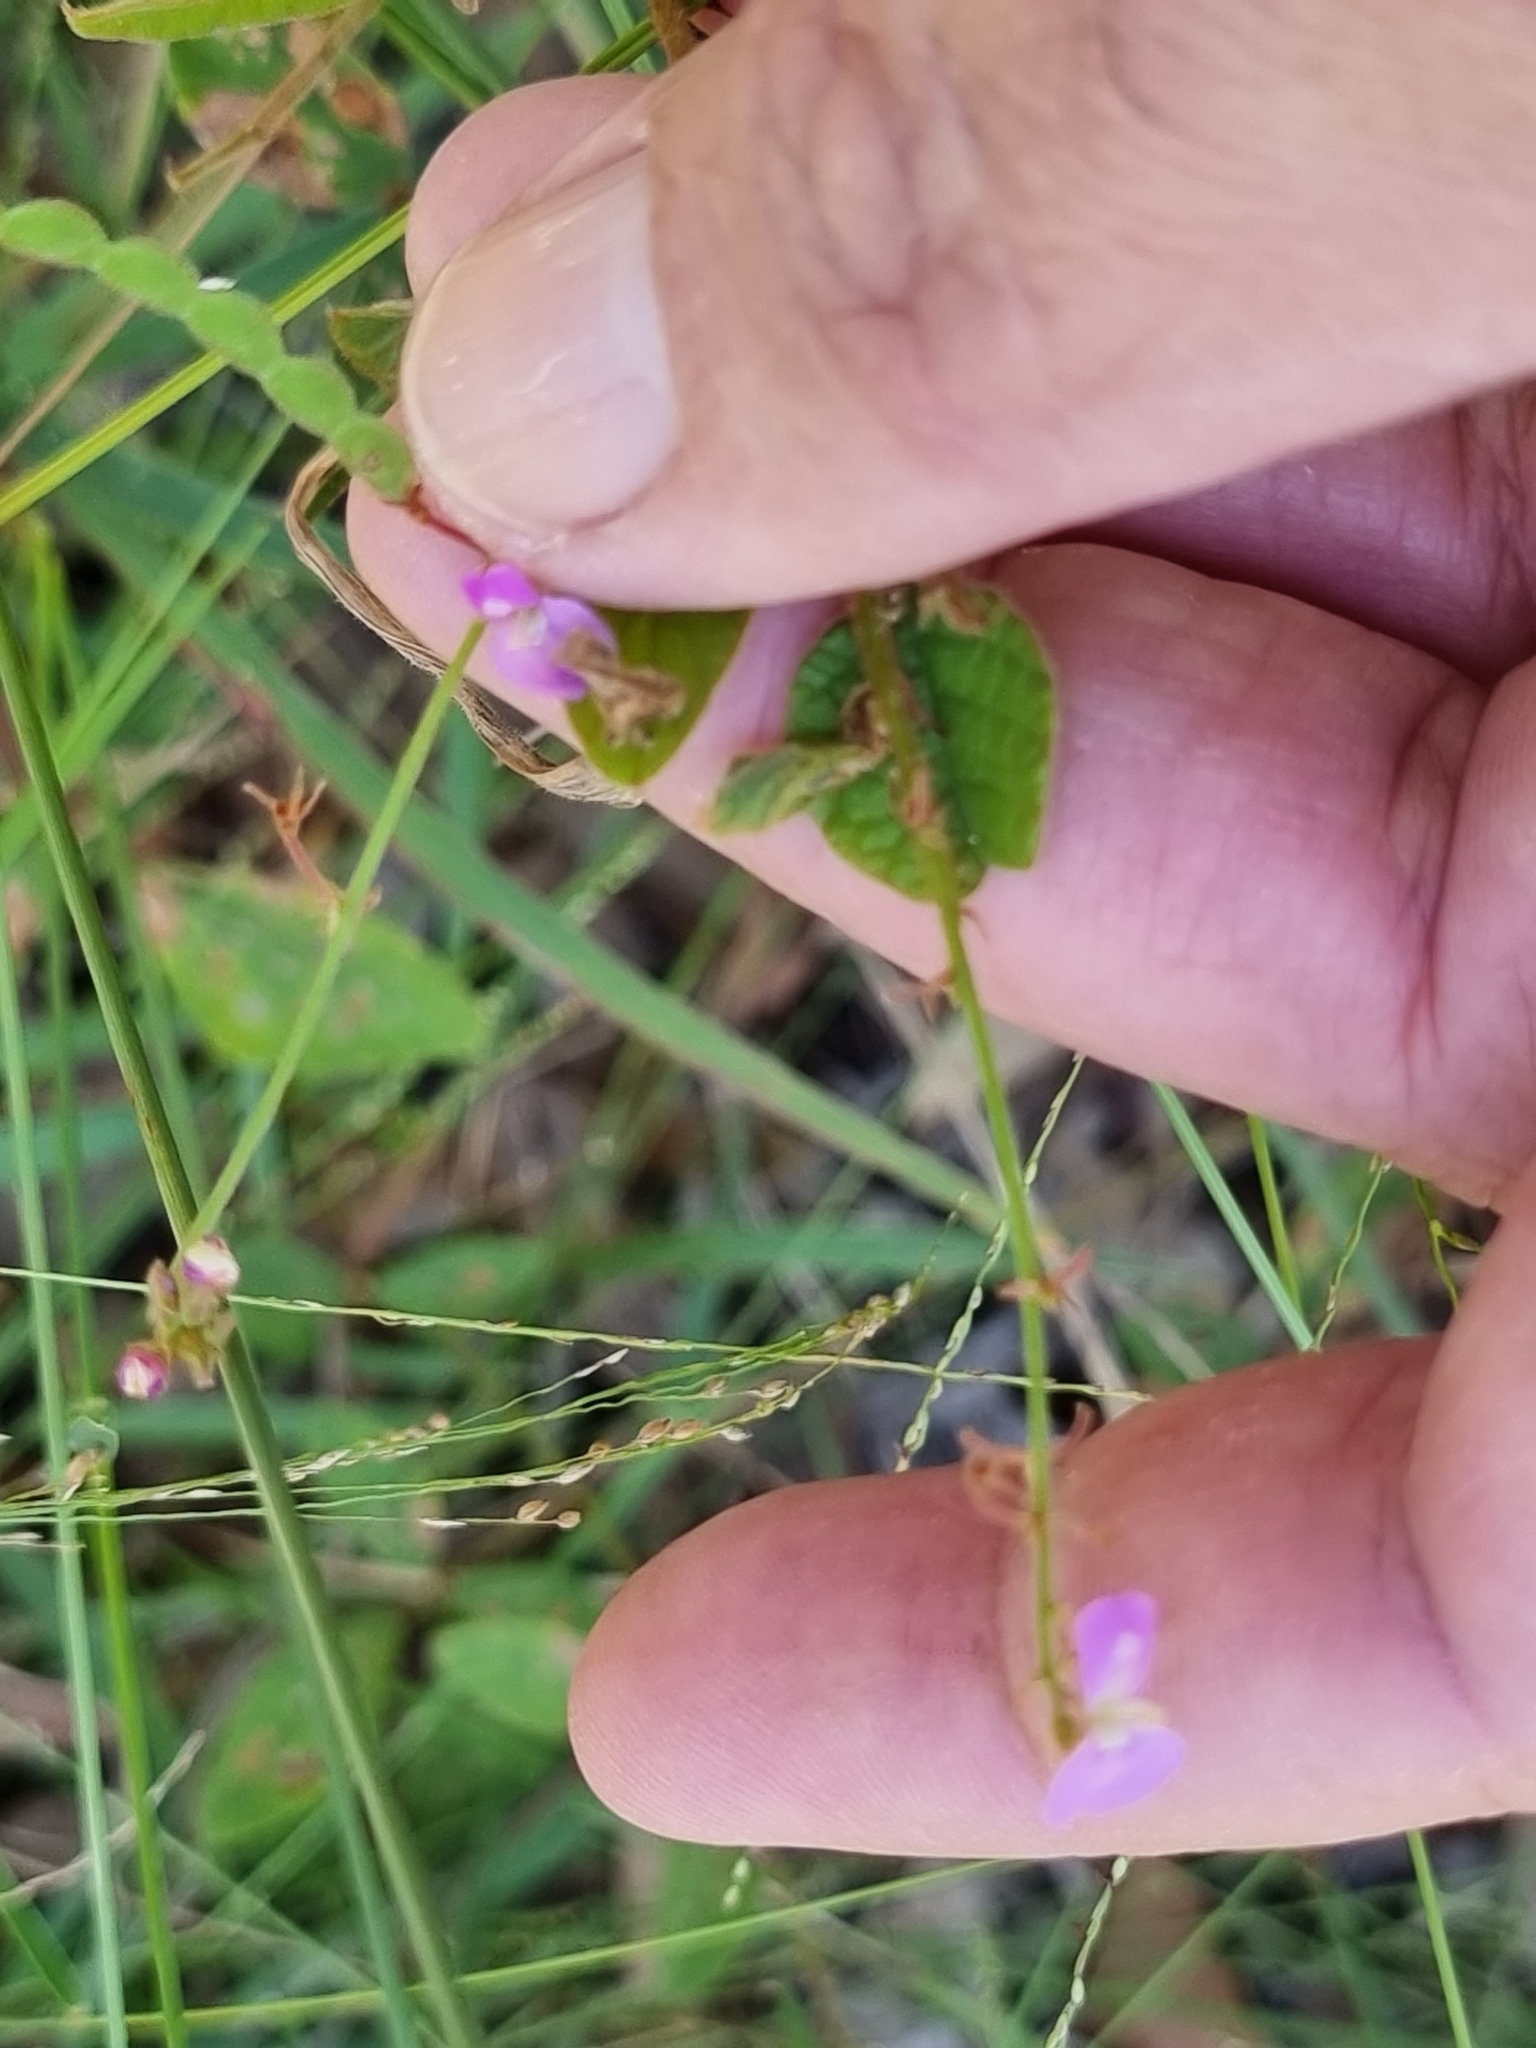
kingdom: Plantae
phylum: Tracheophyta
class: Magnoliopsida
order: Fabales
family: Fabaceae
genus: Maekawaea
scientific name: Maekawaea rhytidophylla
